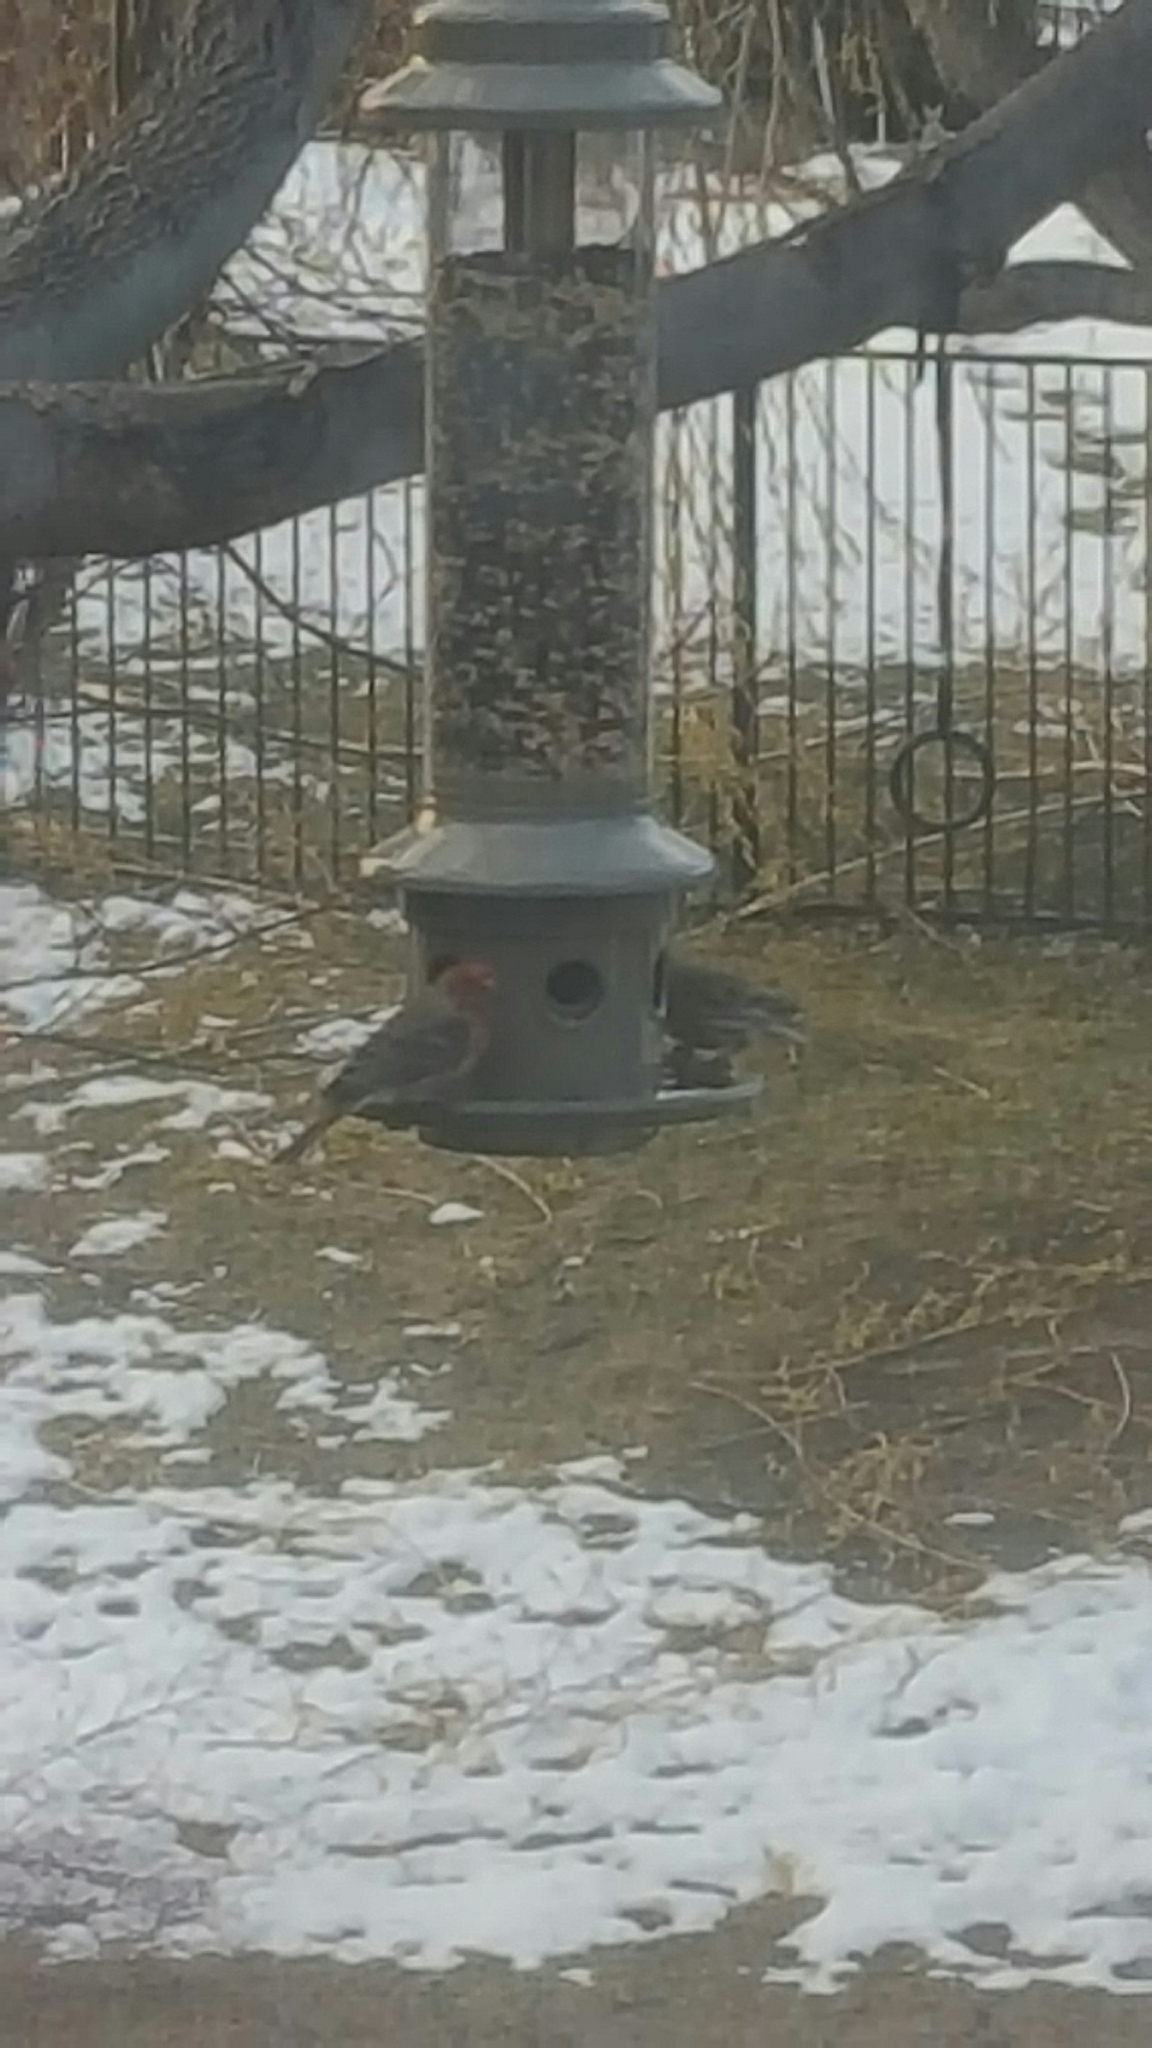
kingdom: Animalia
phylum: Chordata
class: Aves
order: Passeriformes
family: Fringillidae
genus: Haemorhous
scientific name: Haemorhous mexicanus
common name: House finch
